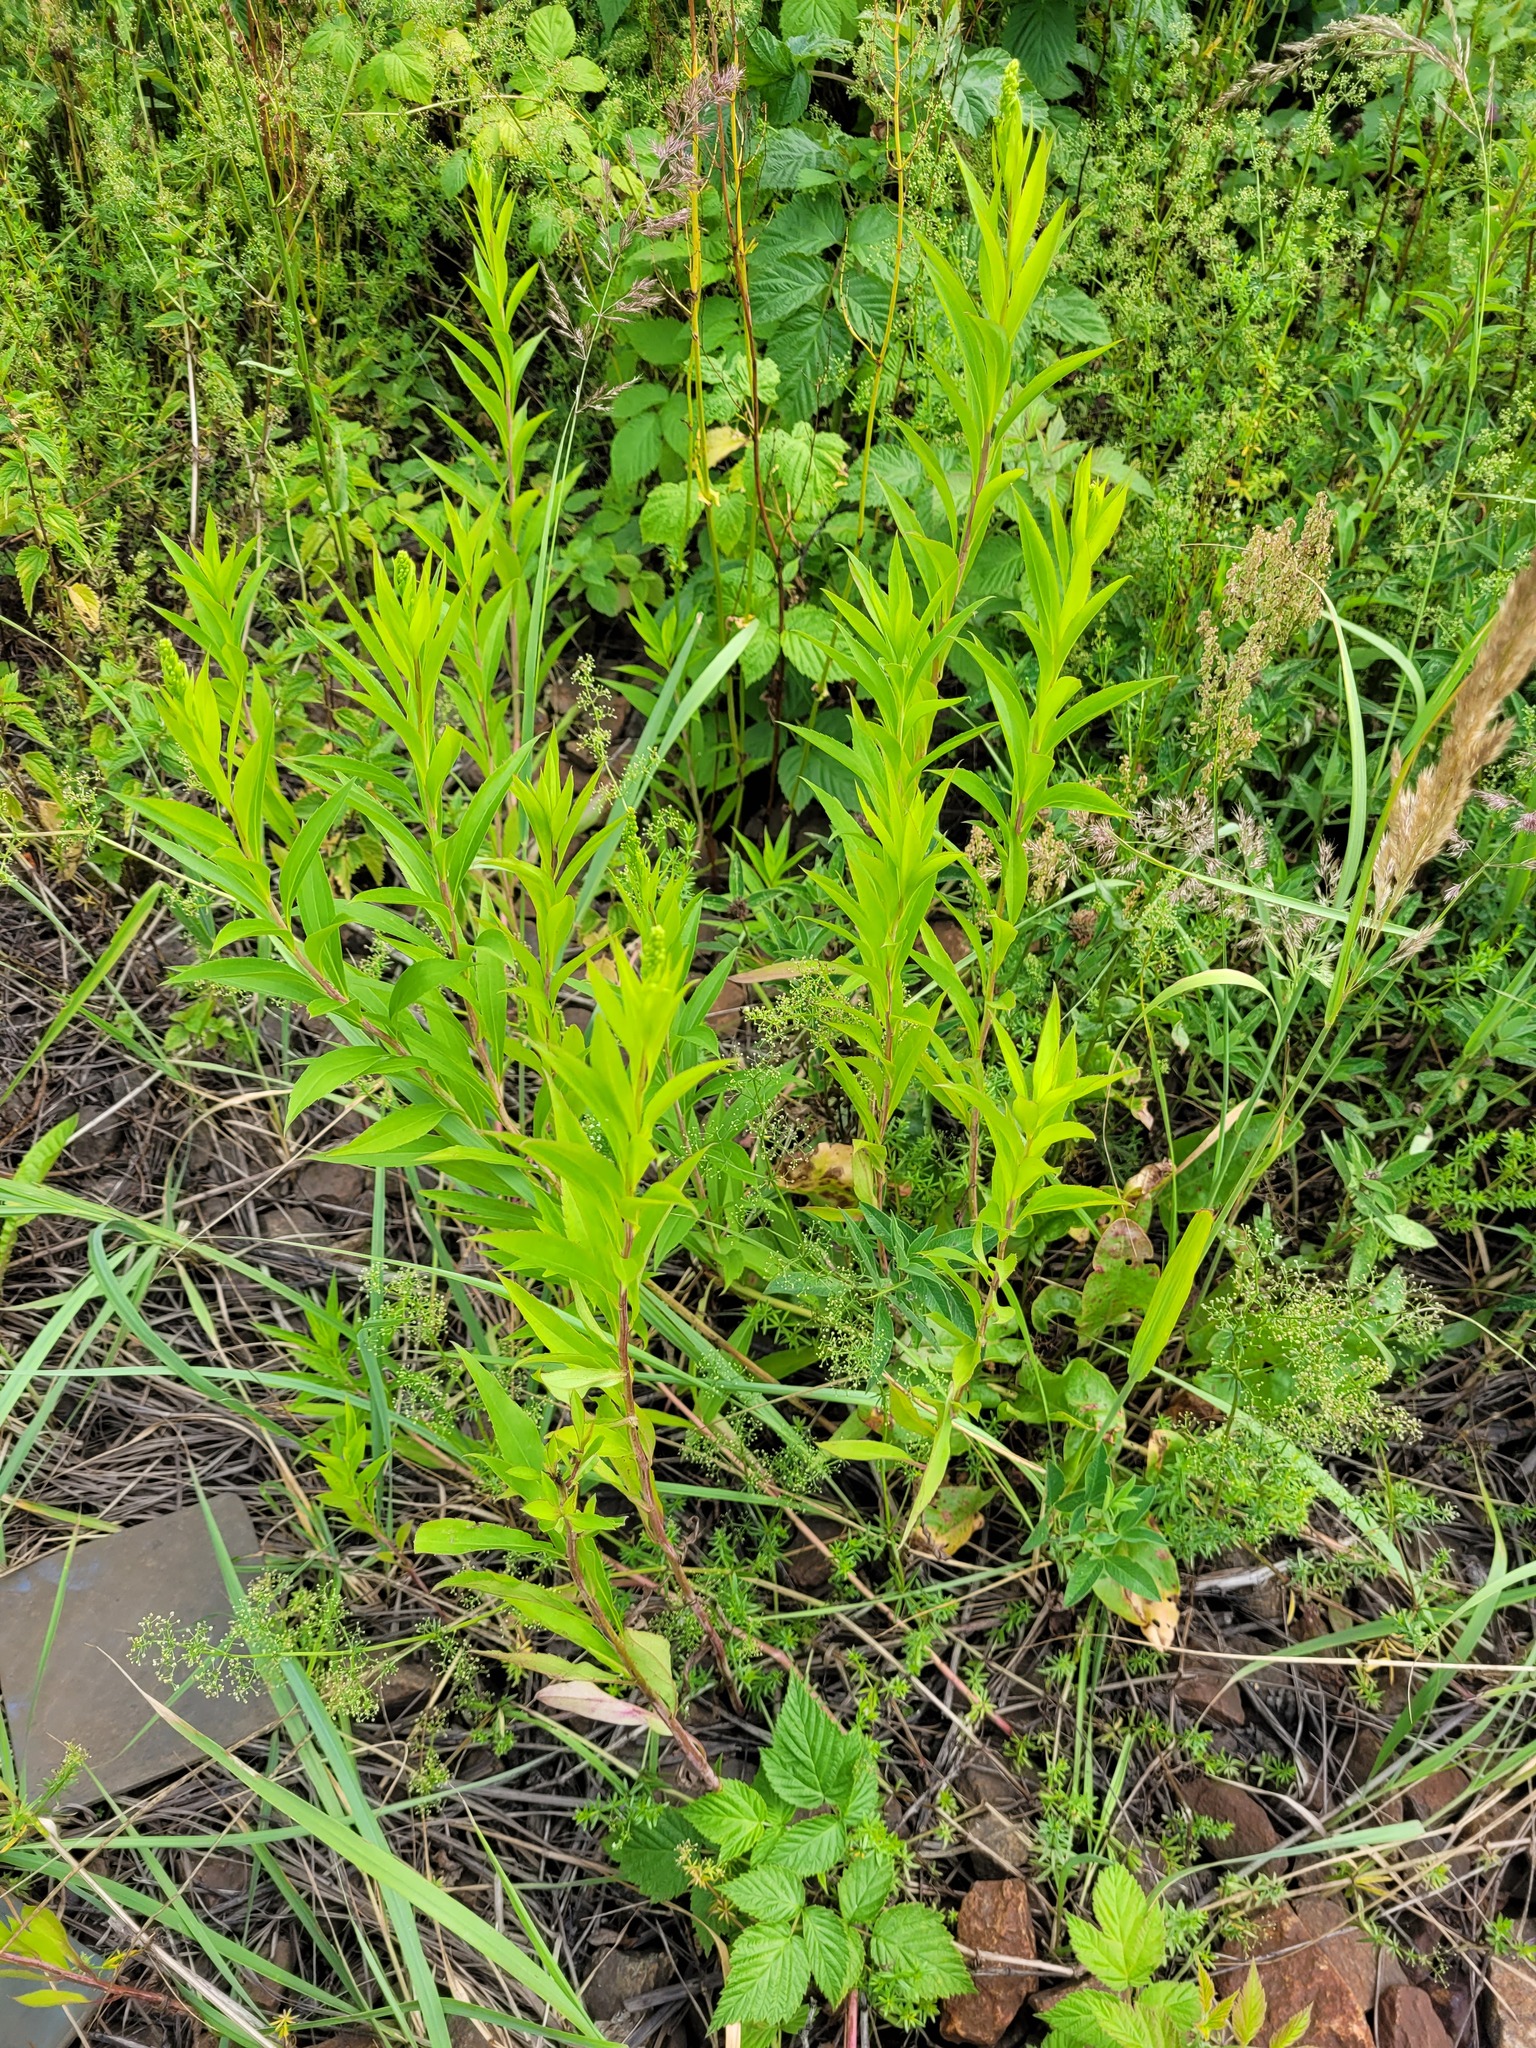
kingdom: Plantae
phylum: Tracheophyta
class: Magnoliopsida
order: Asterales
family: Asteraceae
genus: Solidago
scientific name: Solidago gigantea
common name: Giant goldenrod
